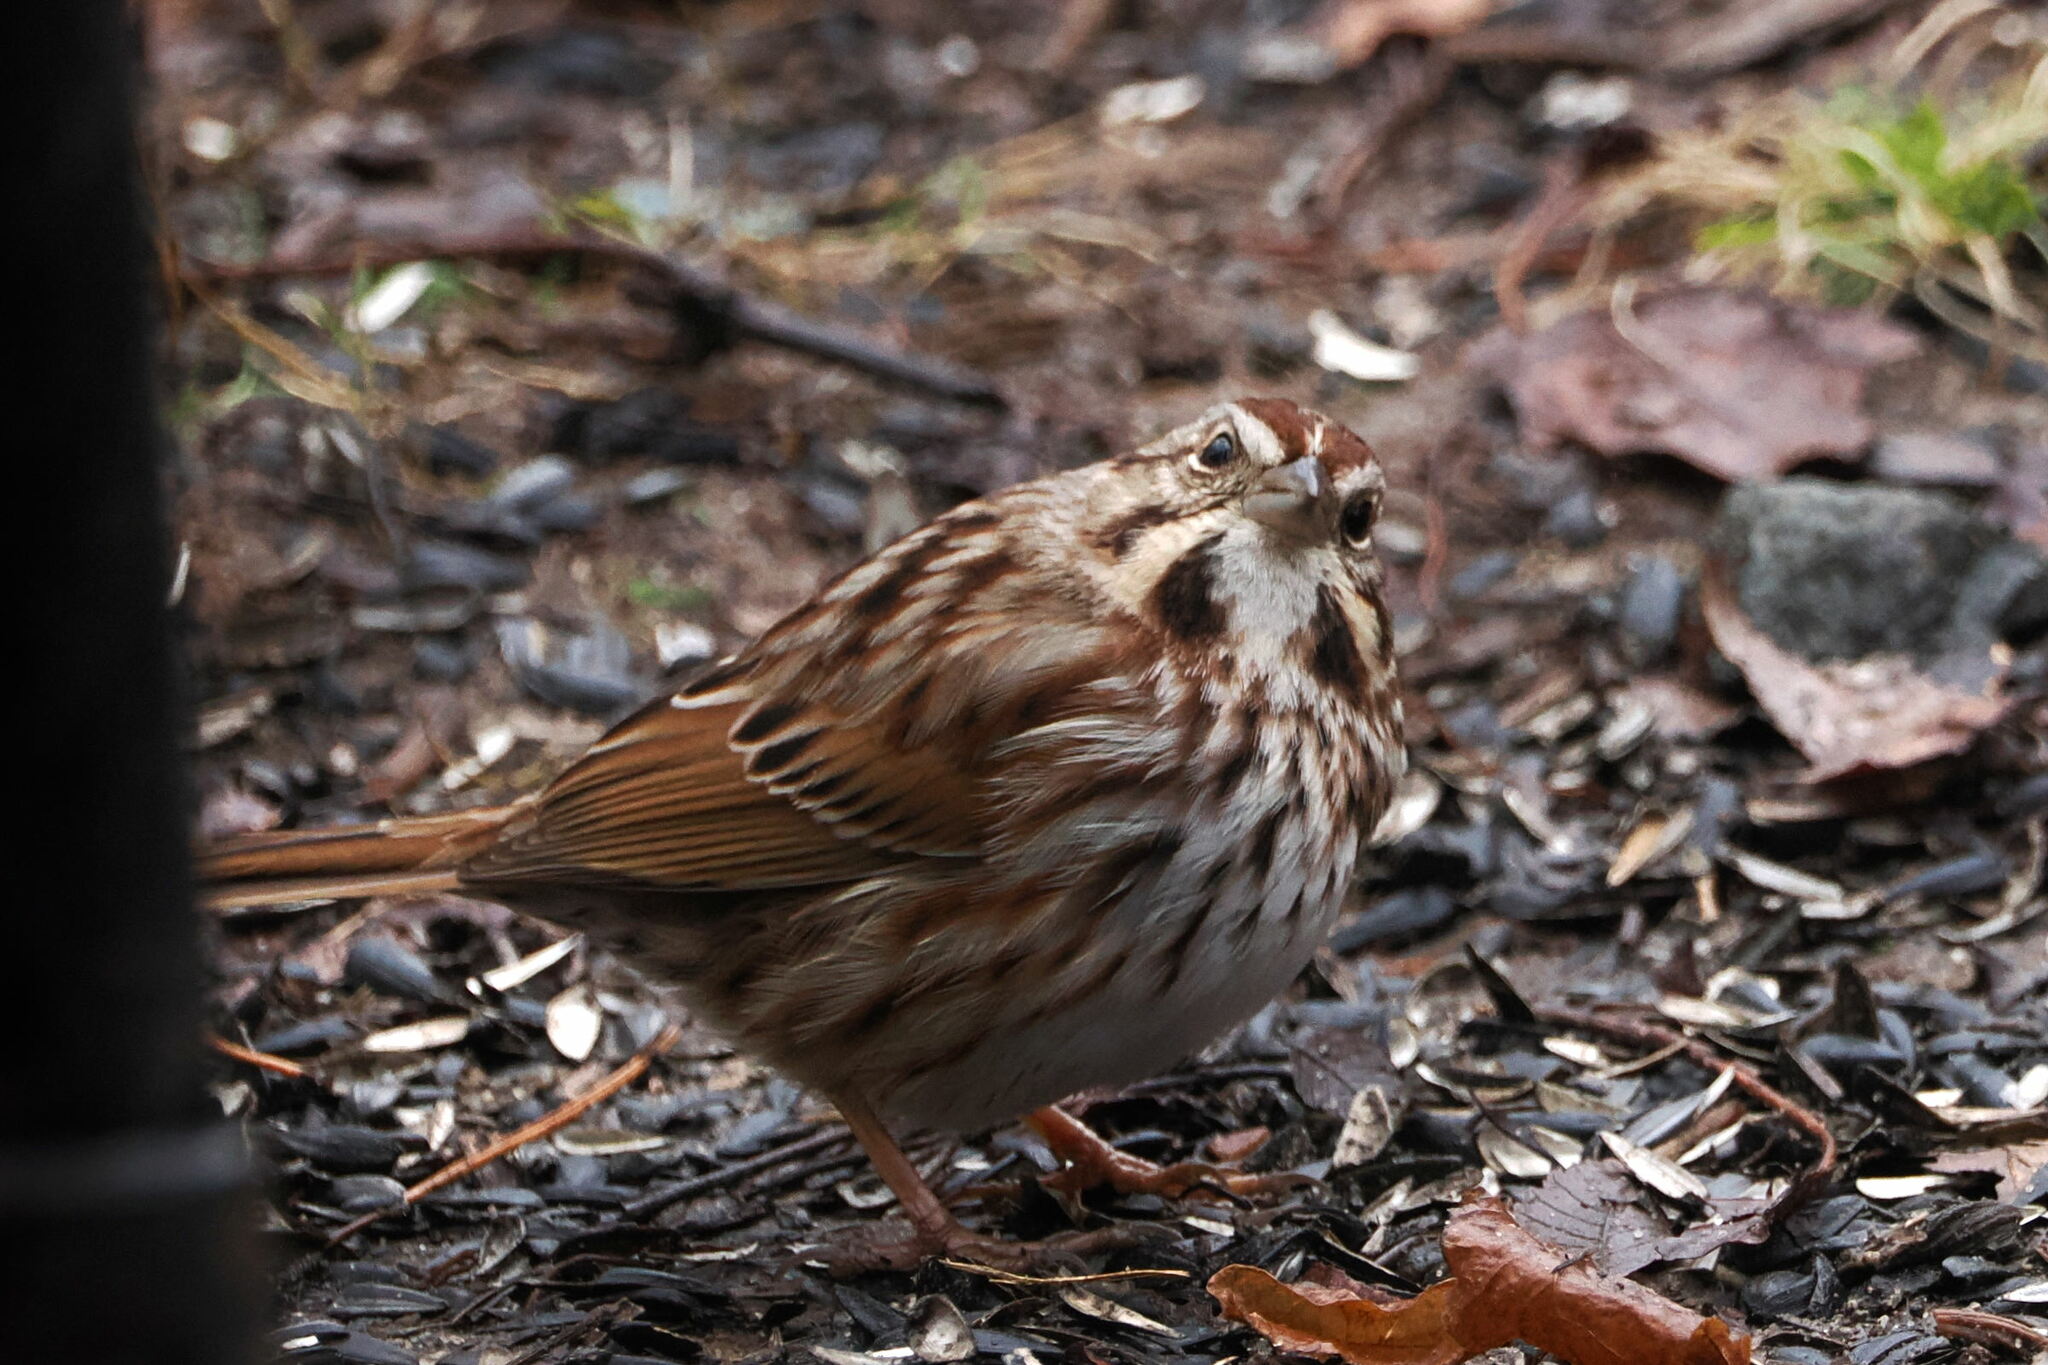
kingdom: Animalia
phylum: Chordata
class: Aves
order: Passeriformes
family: Passerellidae
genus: Melospiza
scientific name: Melospiza melodia
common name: Song sparrow
